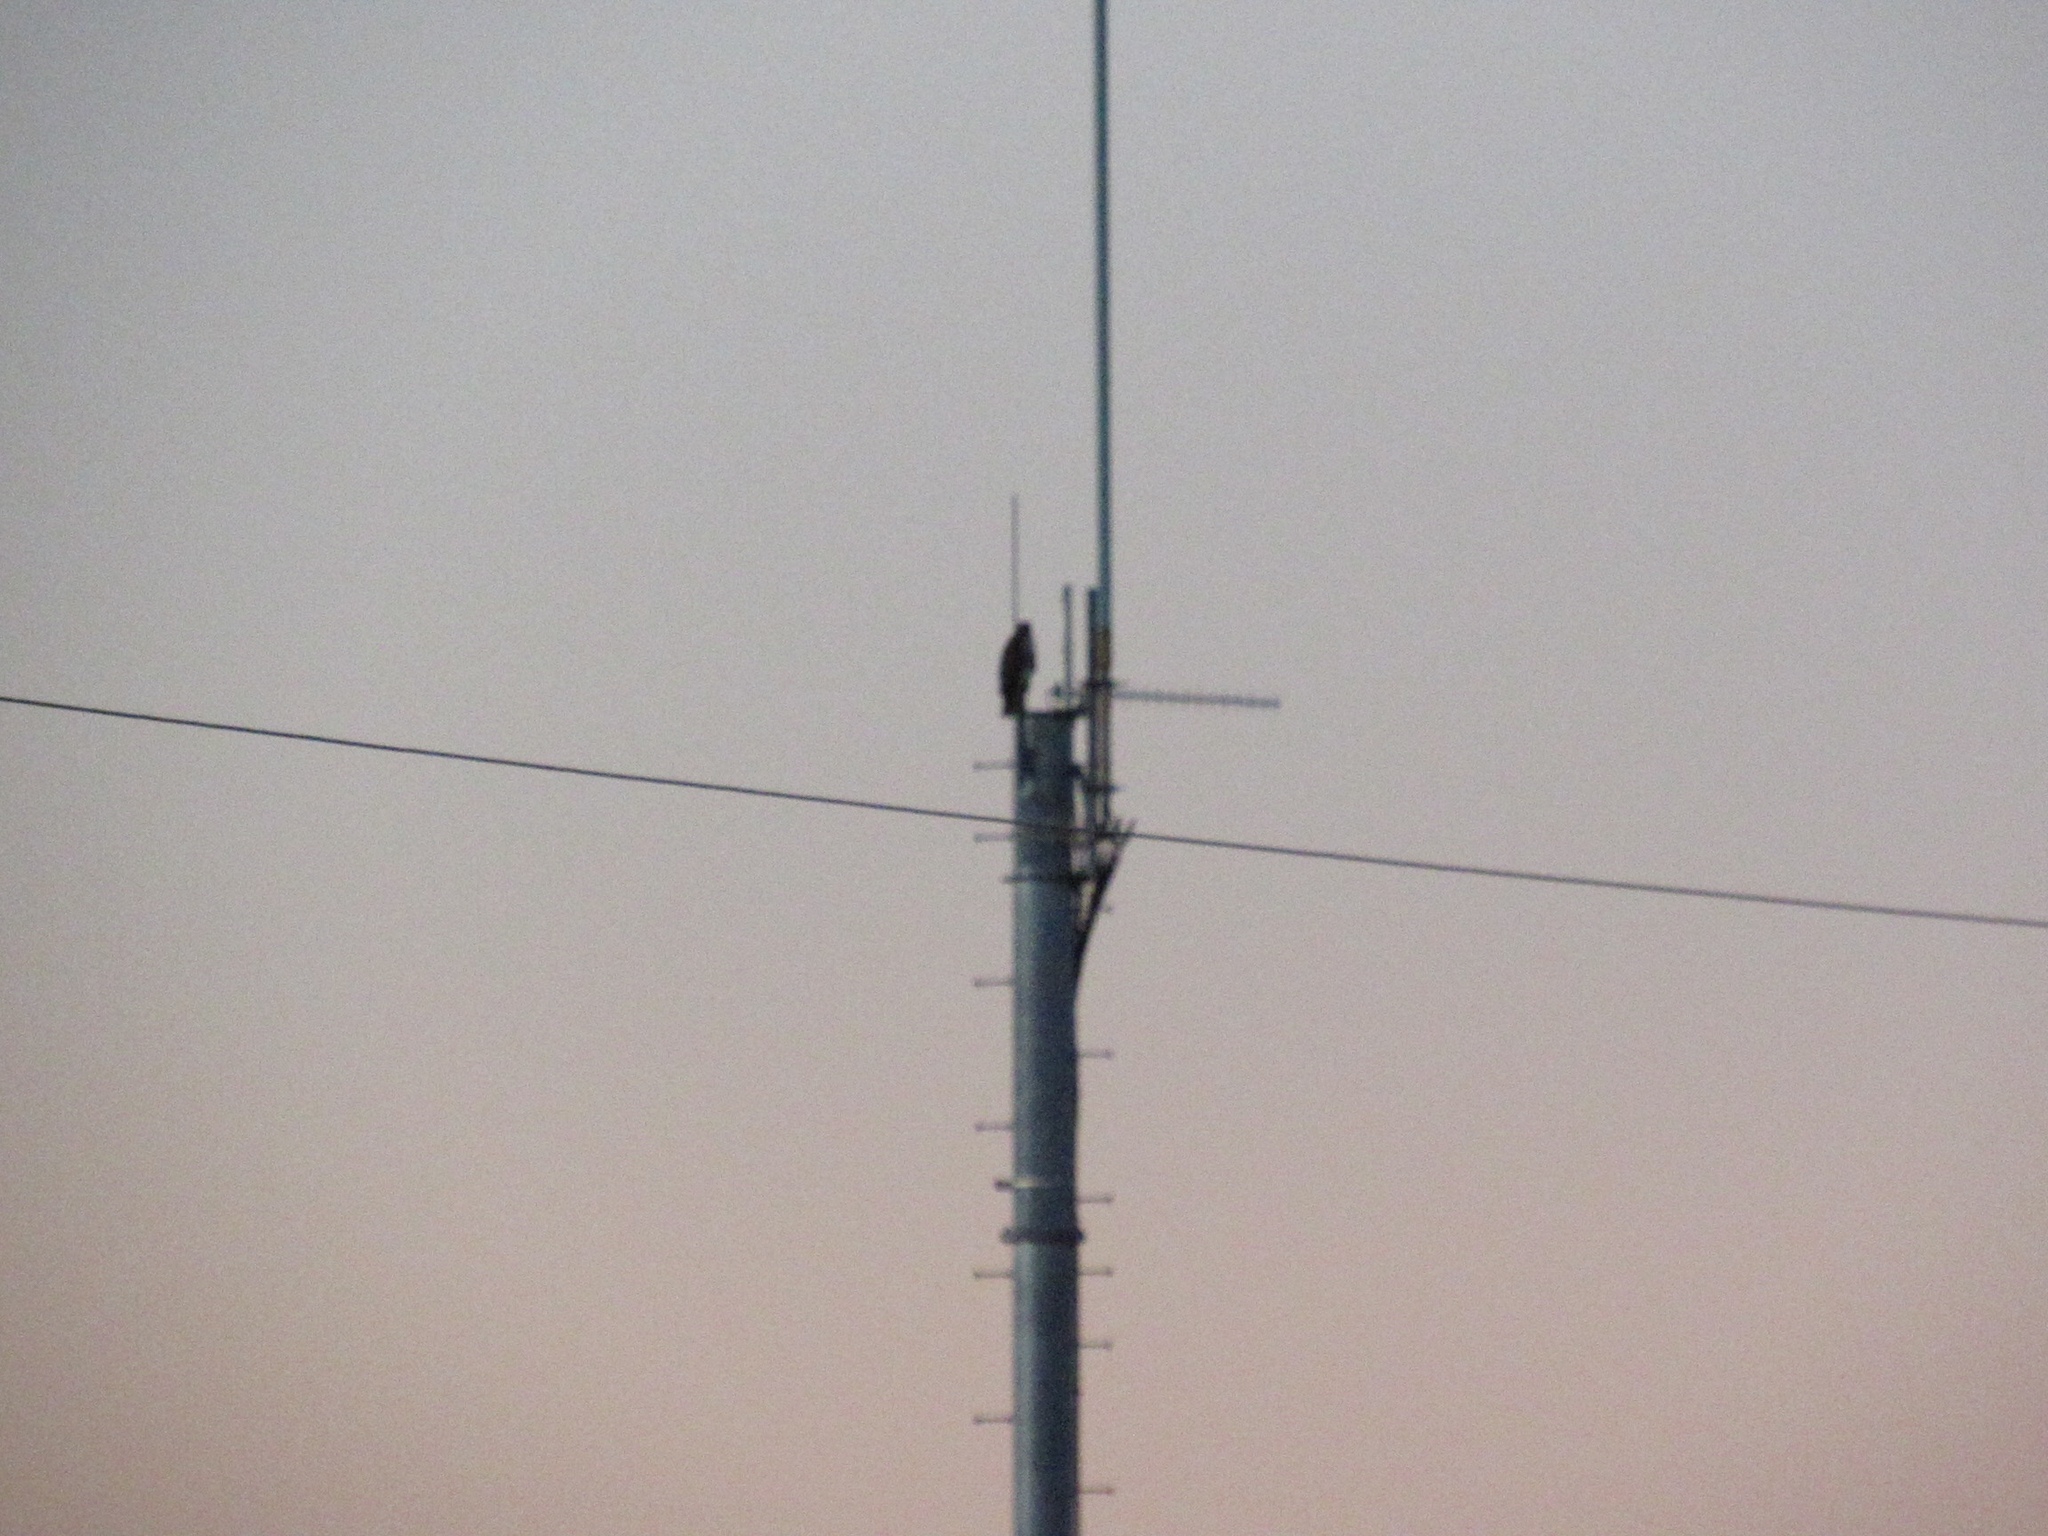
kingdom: Animalia
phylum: Chordata
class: Aves
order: Accipitriformes
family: Accipitridae
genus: Buteo
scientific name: Buteo jamaicensis
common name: Red-tailed hawk
